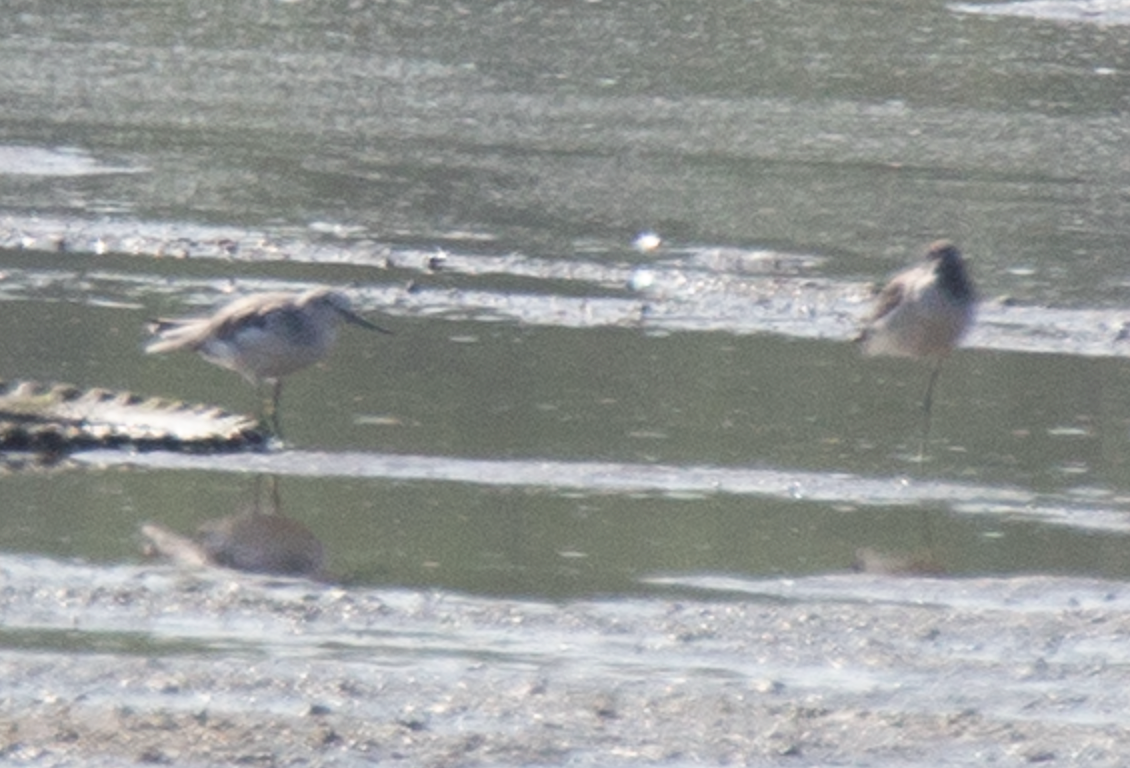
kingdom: Animalia
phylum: Chordata
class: Aves
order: Charadriiformes
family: Scolopacidae
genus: Tringa
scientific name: Tringa nebularia
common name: Common greenshank
